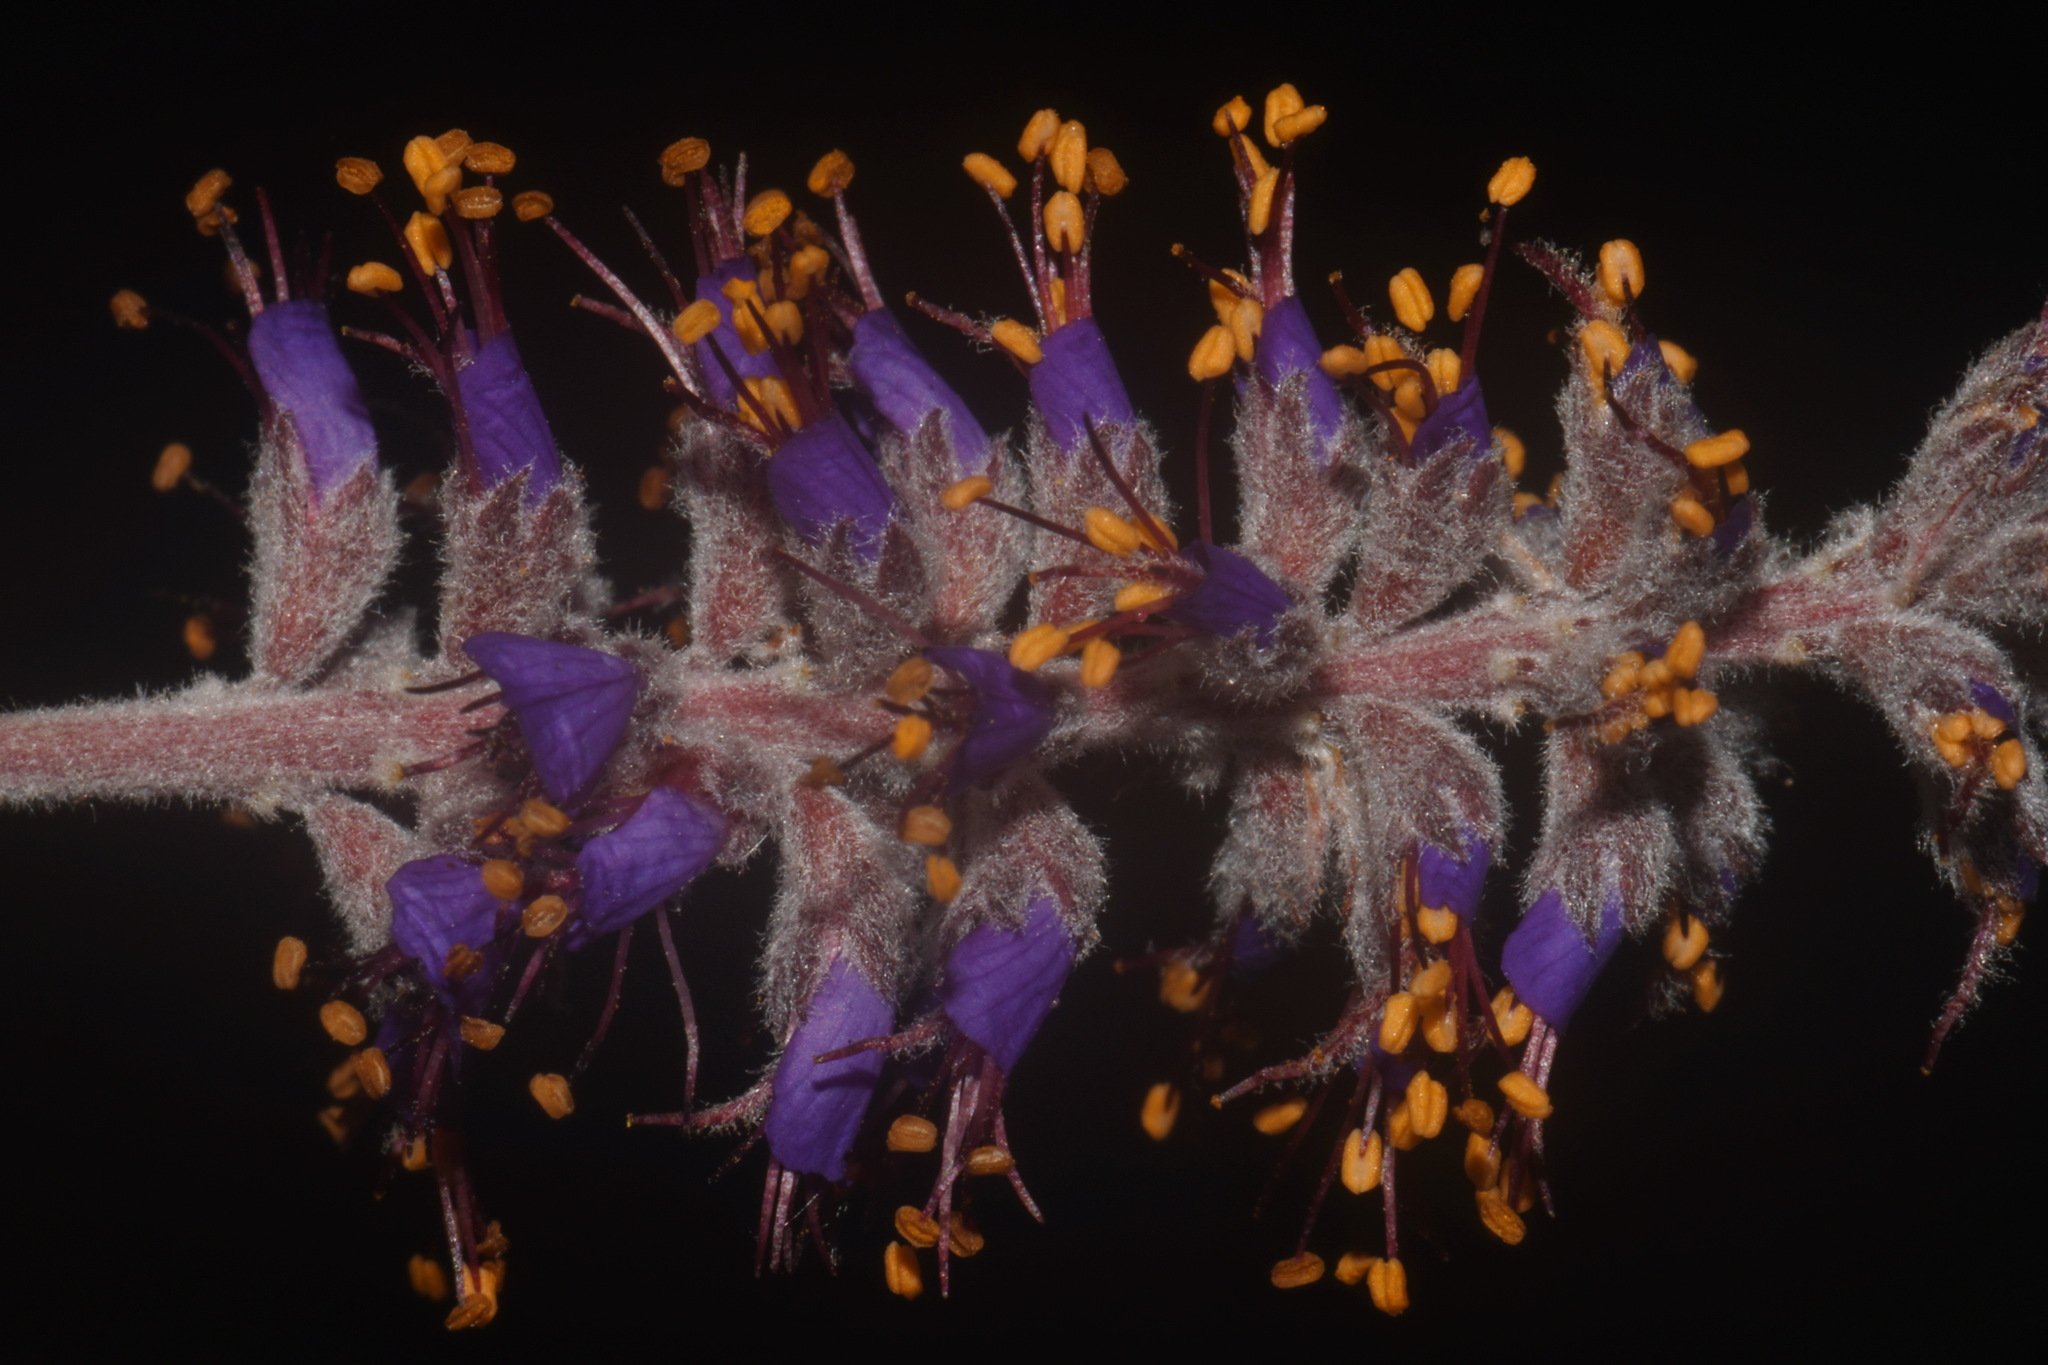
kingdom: Plantae
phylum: Tracheophyta
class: Magnoliopsida
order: Fabales
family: Fabaceae
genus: Amorpha
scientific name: Amorpha canescens
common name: Leadplant
